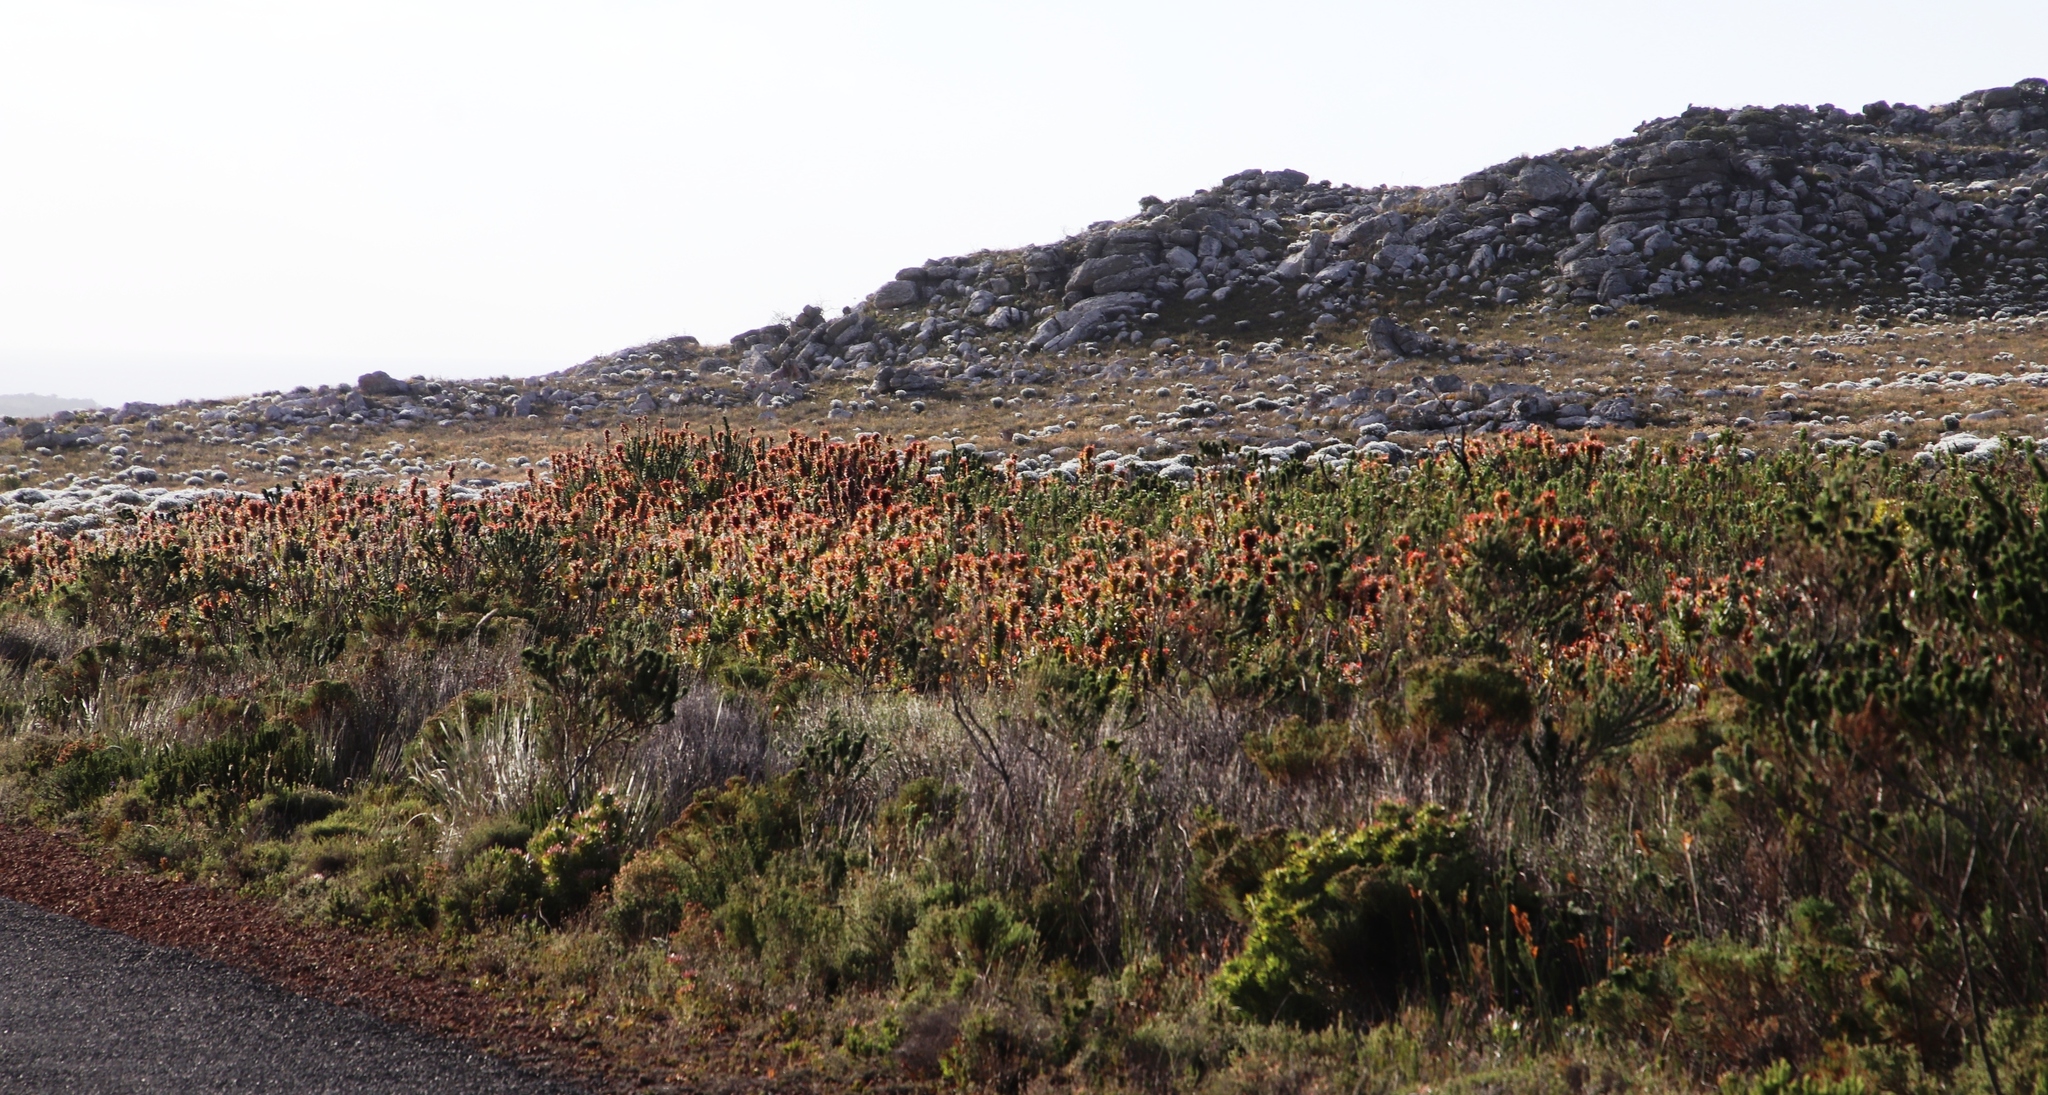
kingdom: Plantae
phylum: Tracheophyta
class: Magnoliopsida
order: Proteales
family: Proteaceae
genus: Mimetes
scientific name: Mimetes hirtus
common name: Marsh pagoda
